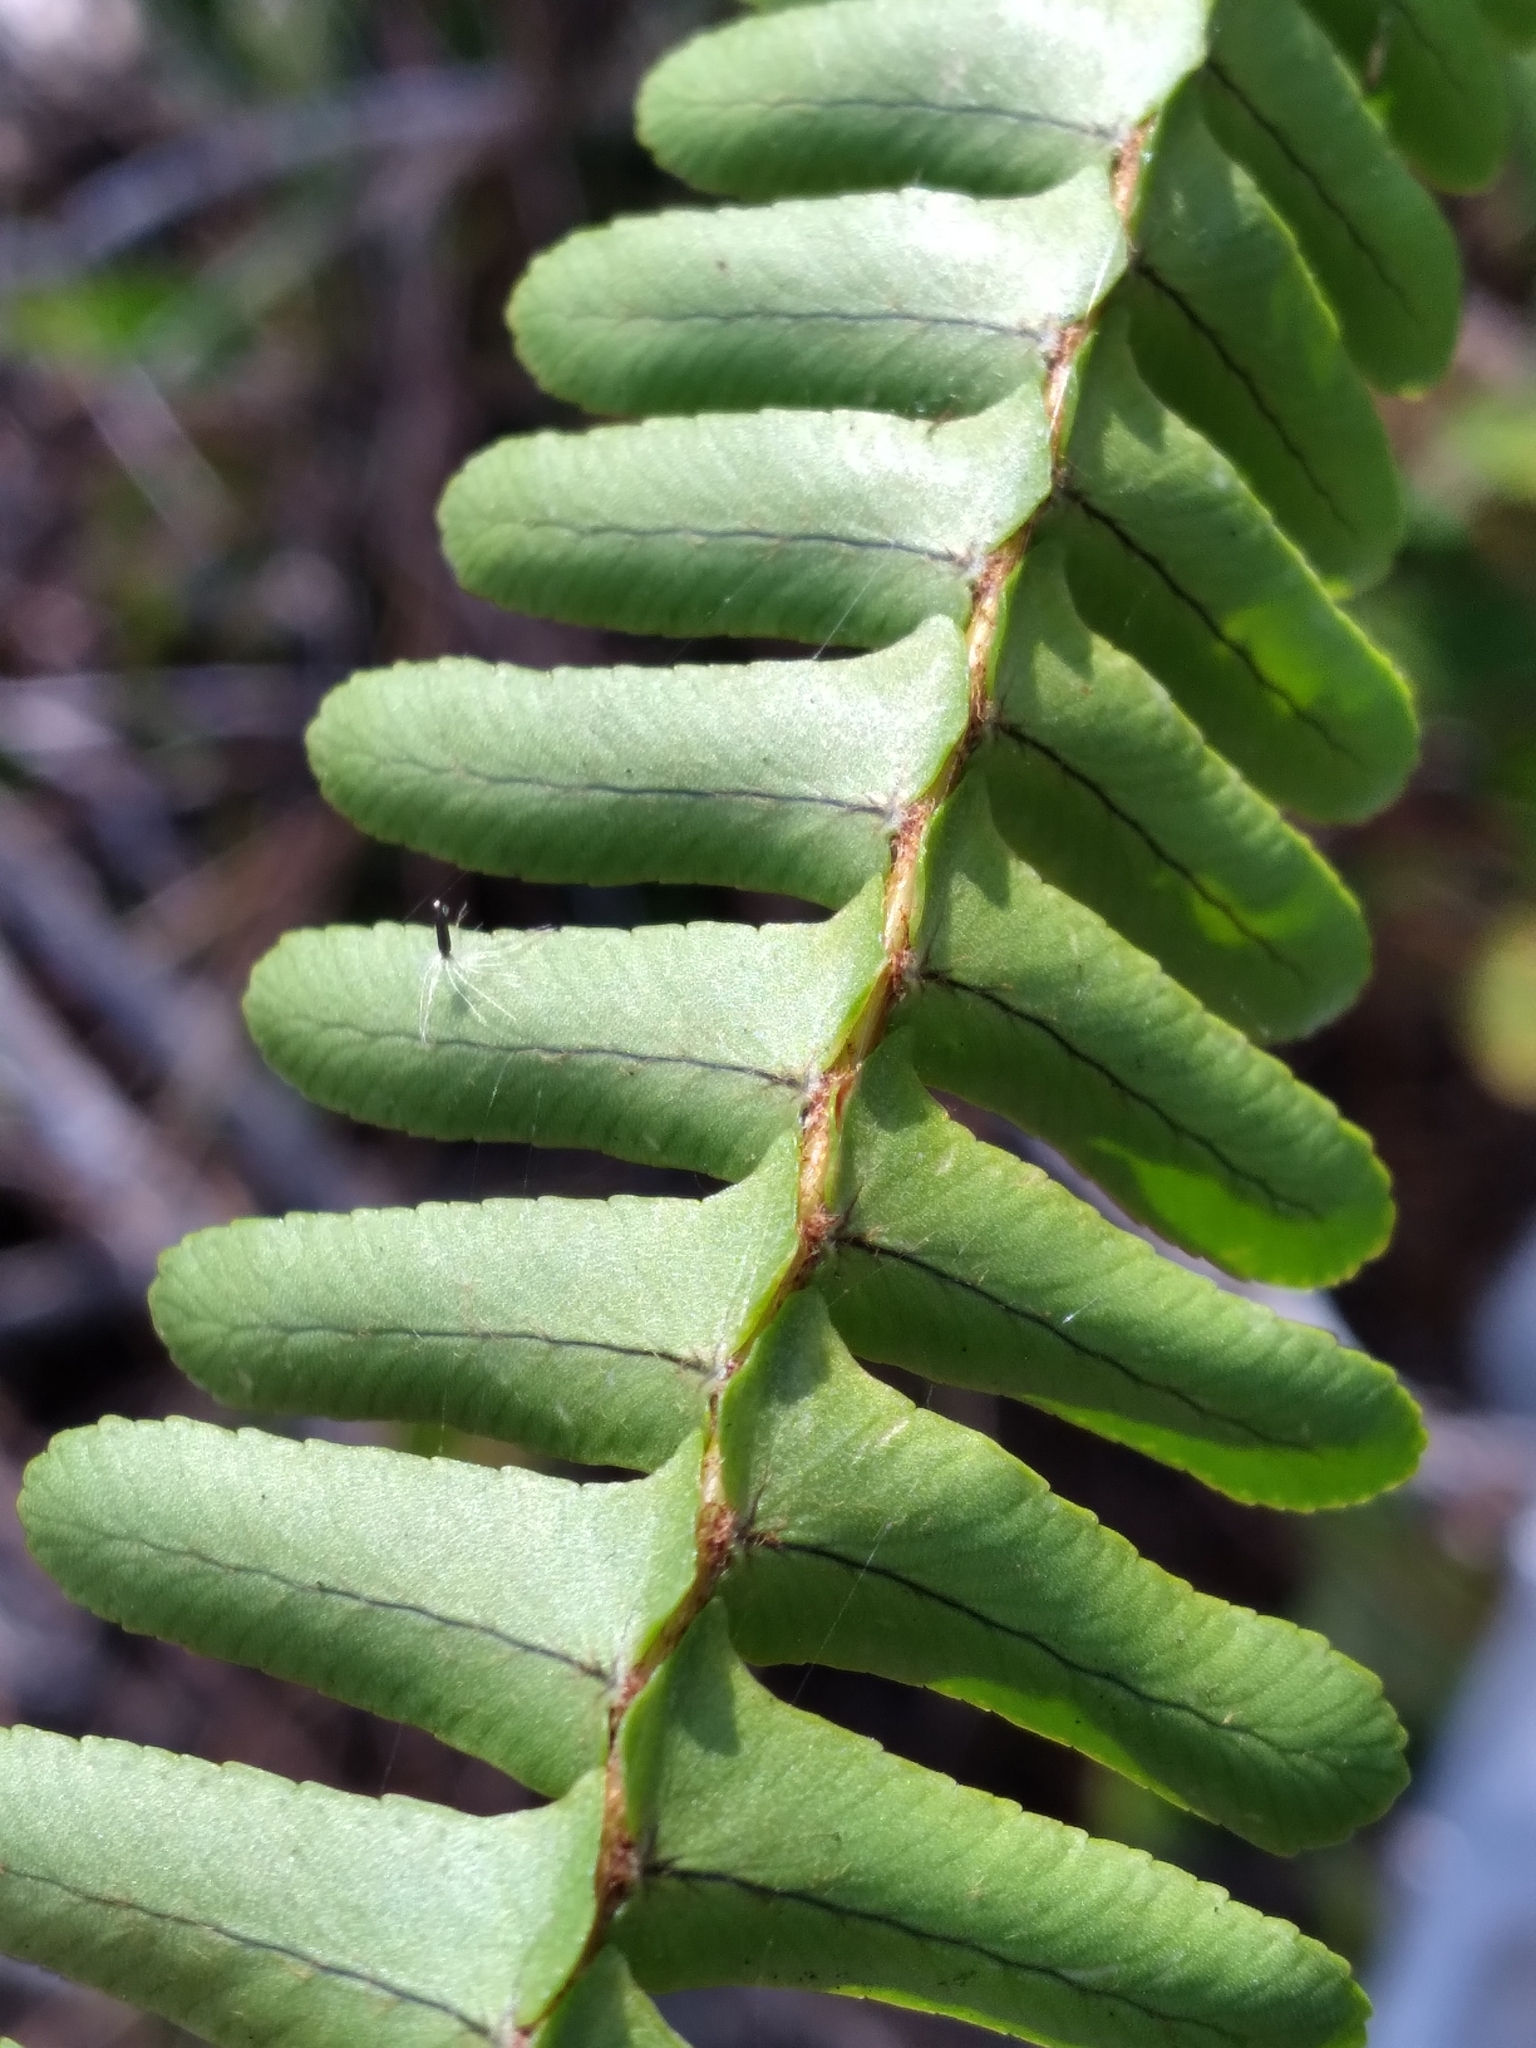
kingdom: Plantae
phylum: Tracheophyta
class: Polypodiopsida
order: Polypodiales
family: Nephrolepidaceae
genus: Nephrolepis
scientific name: Nephrolepis cordifolia
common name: Narrow swordfern
